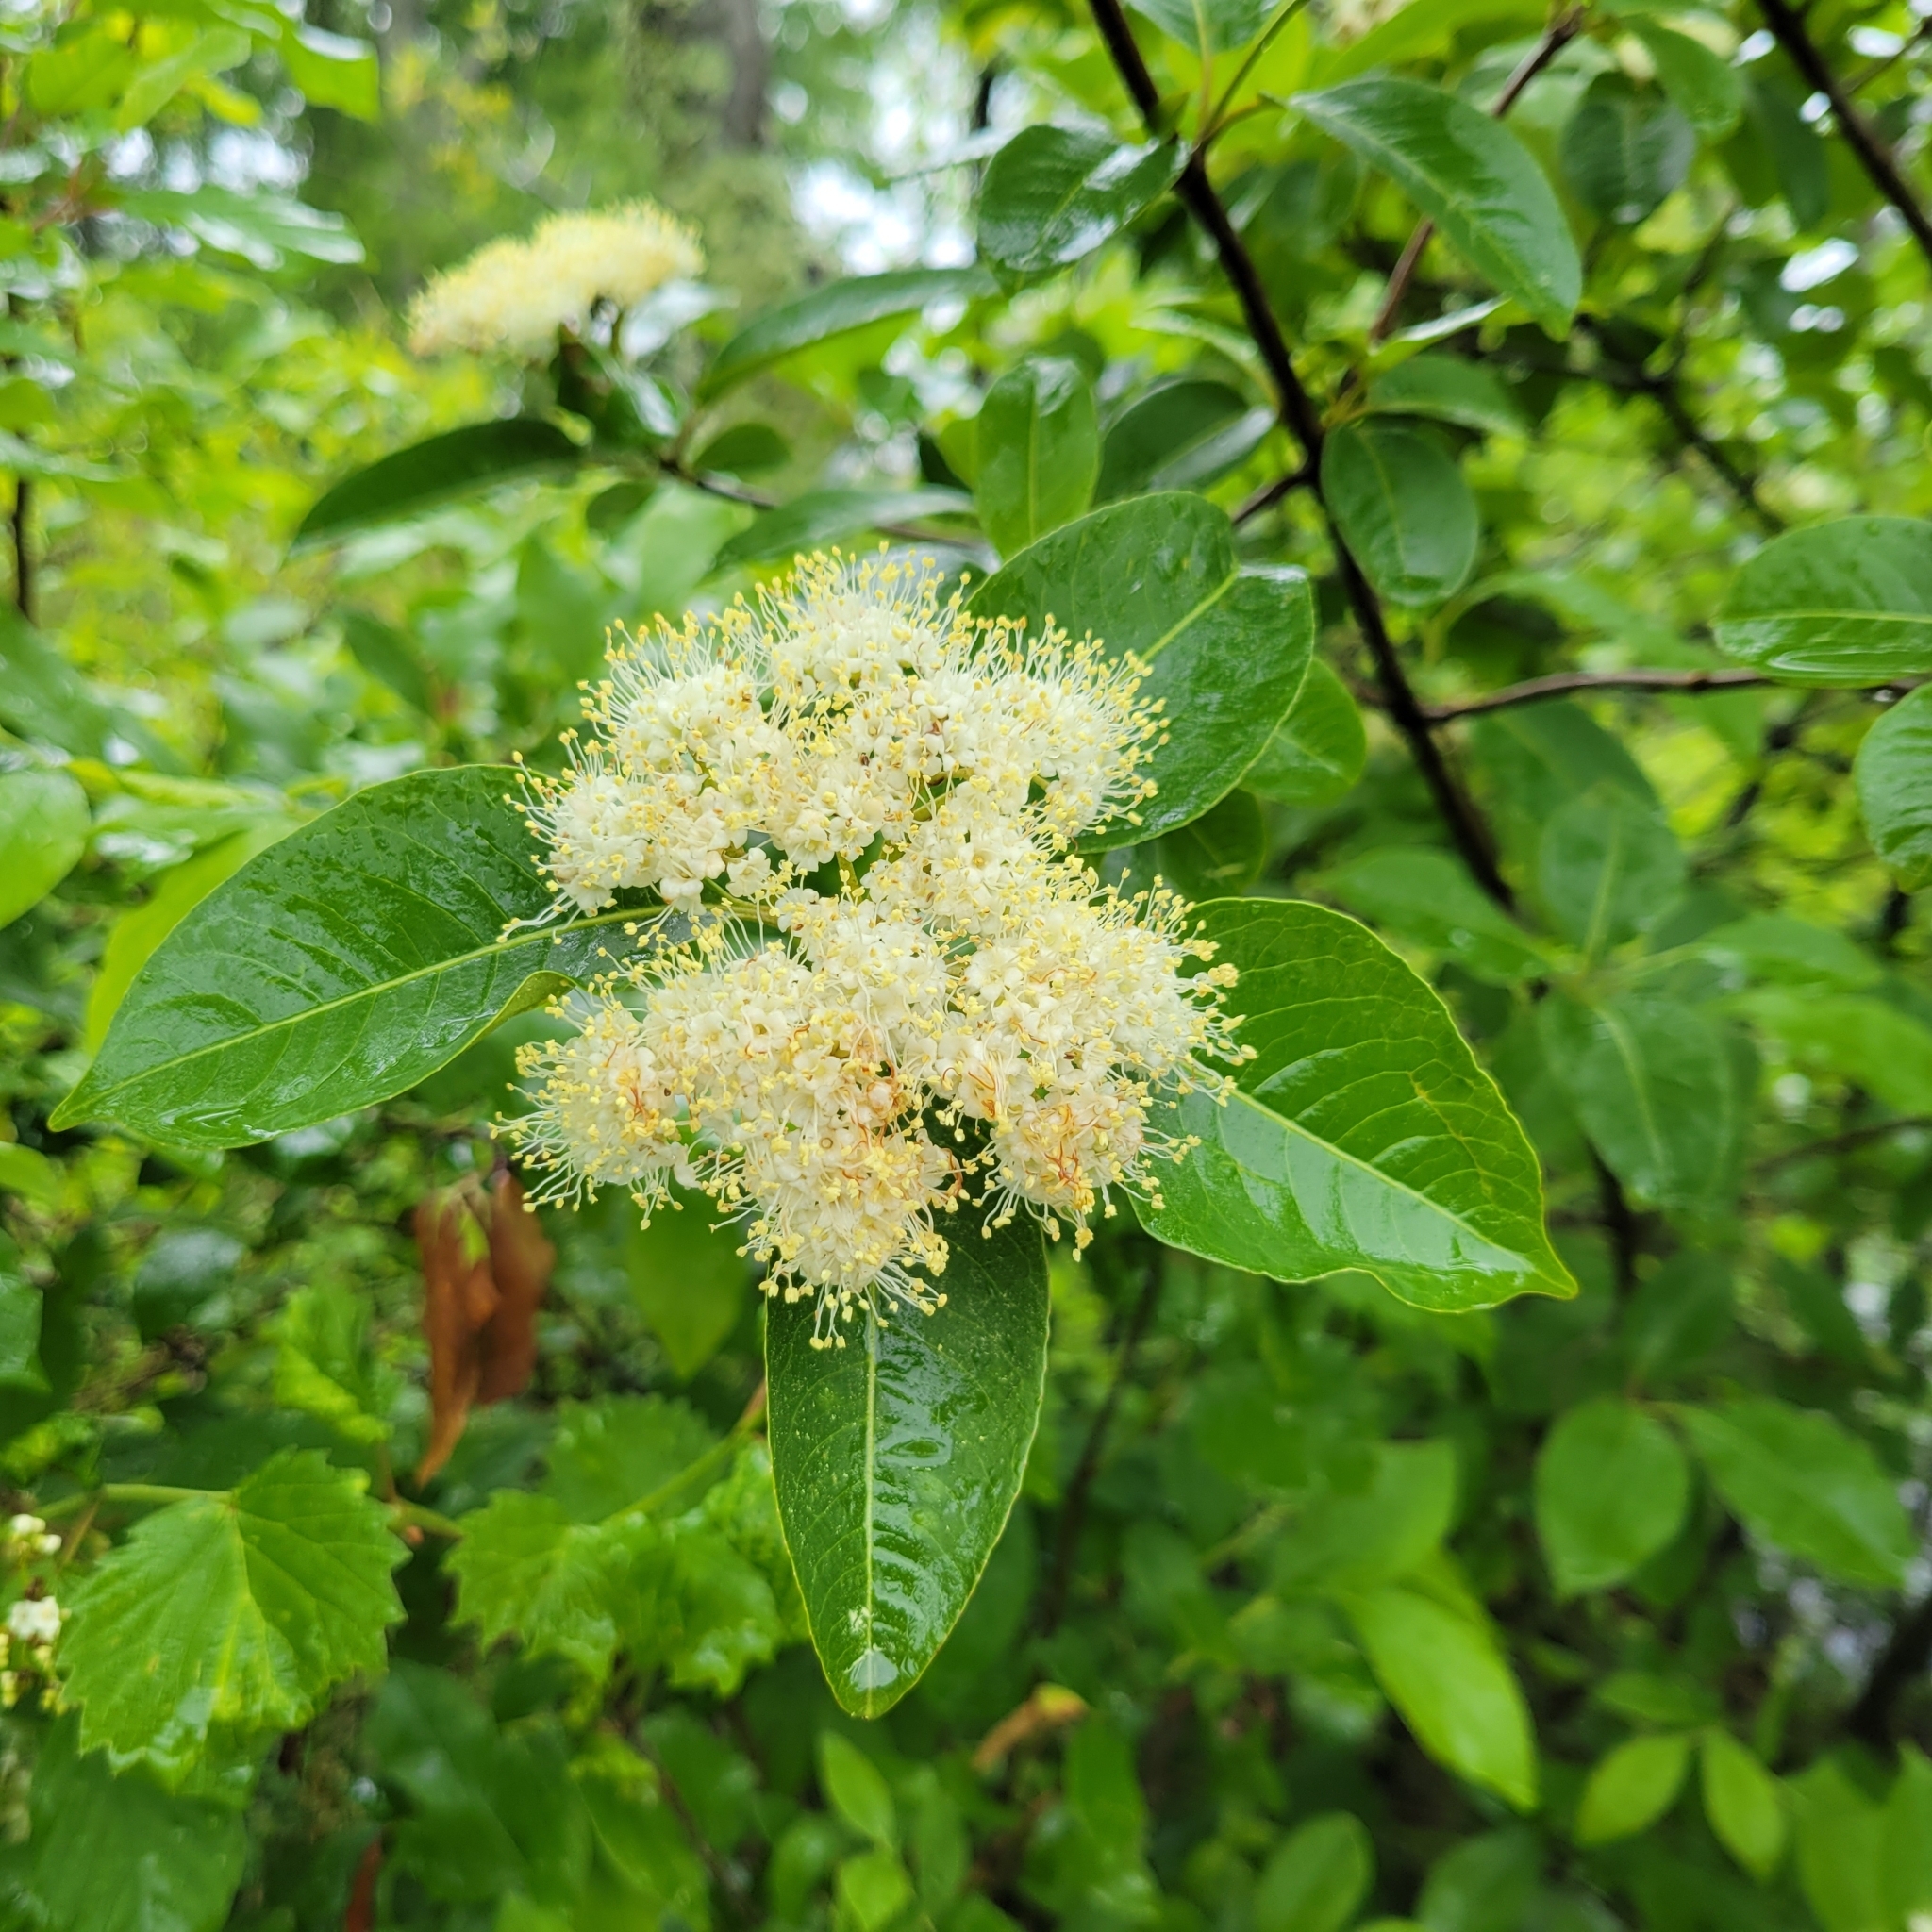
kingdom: Plantae
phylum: Tracheophyta
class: Magnoliopsida
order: Dipsacales
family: Viburnaceae
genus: Viburnum
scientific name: Viburnum cassinoides
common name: Swamp haw
